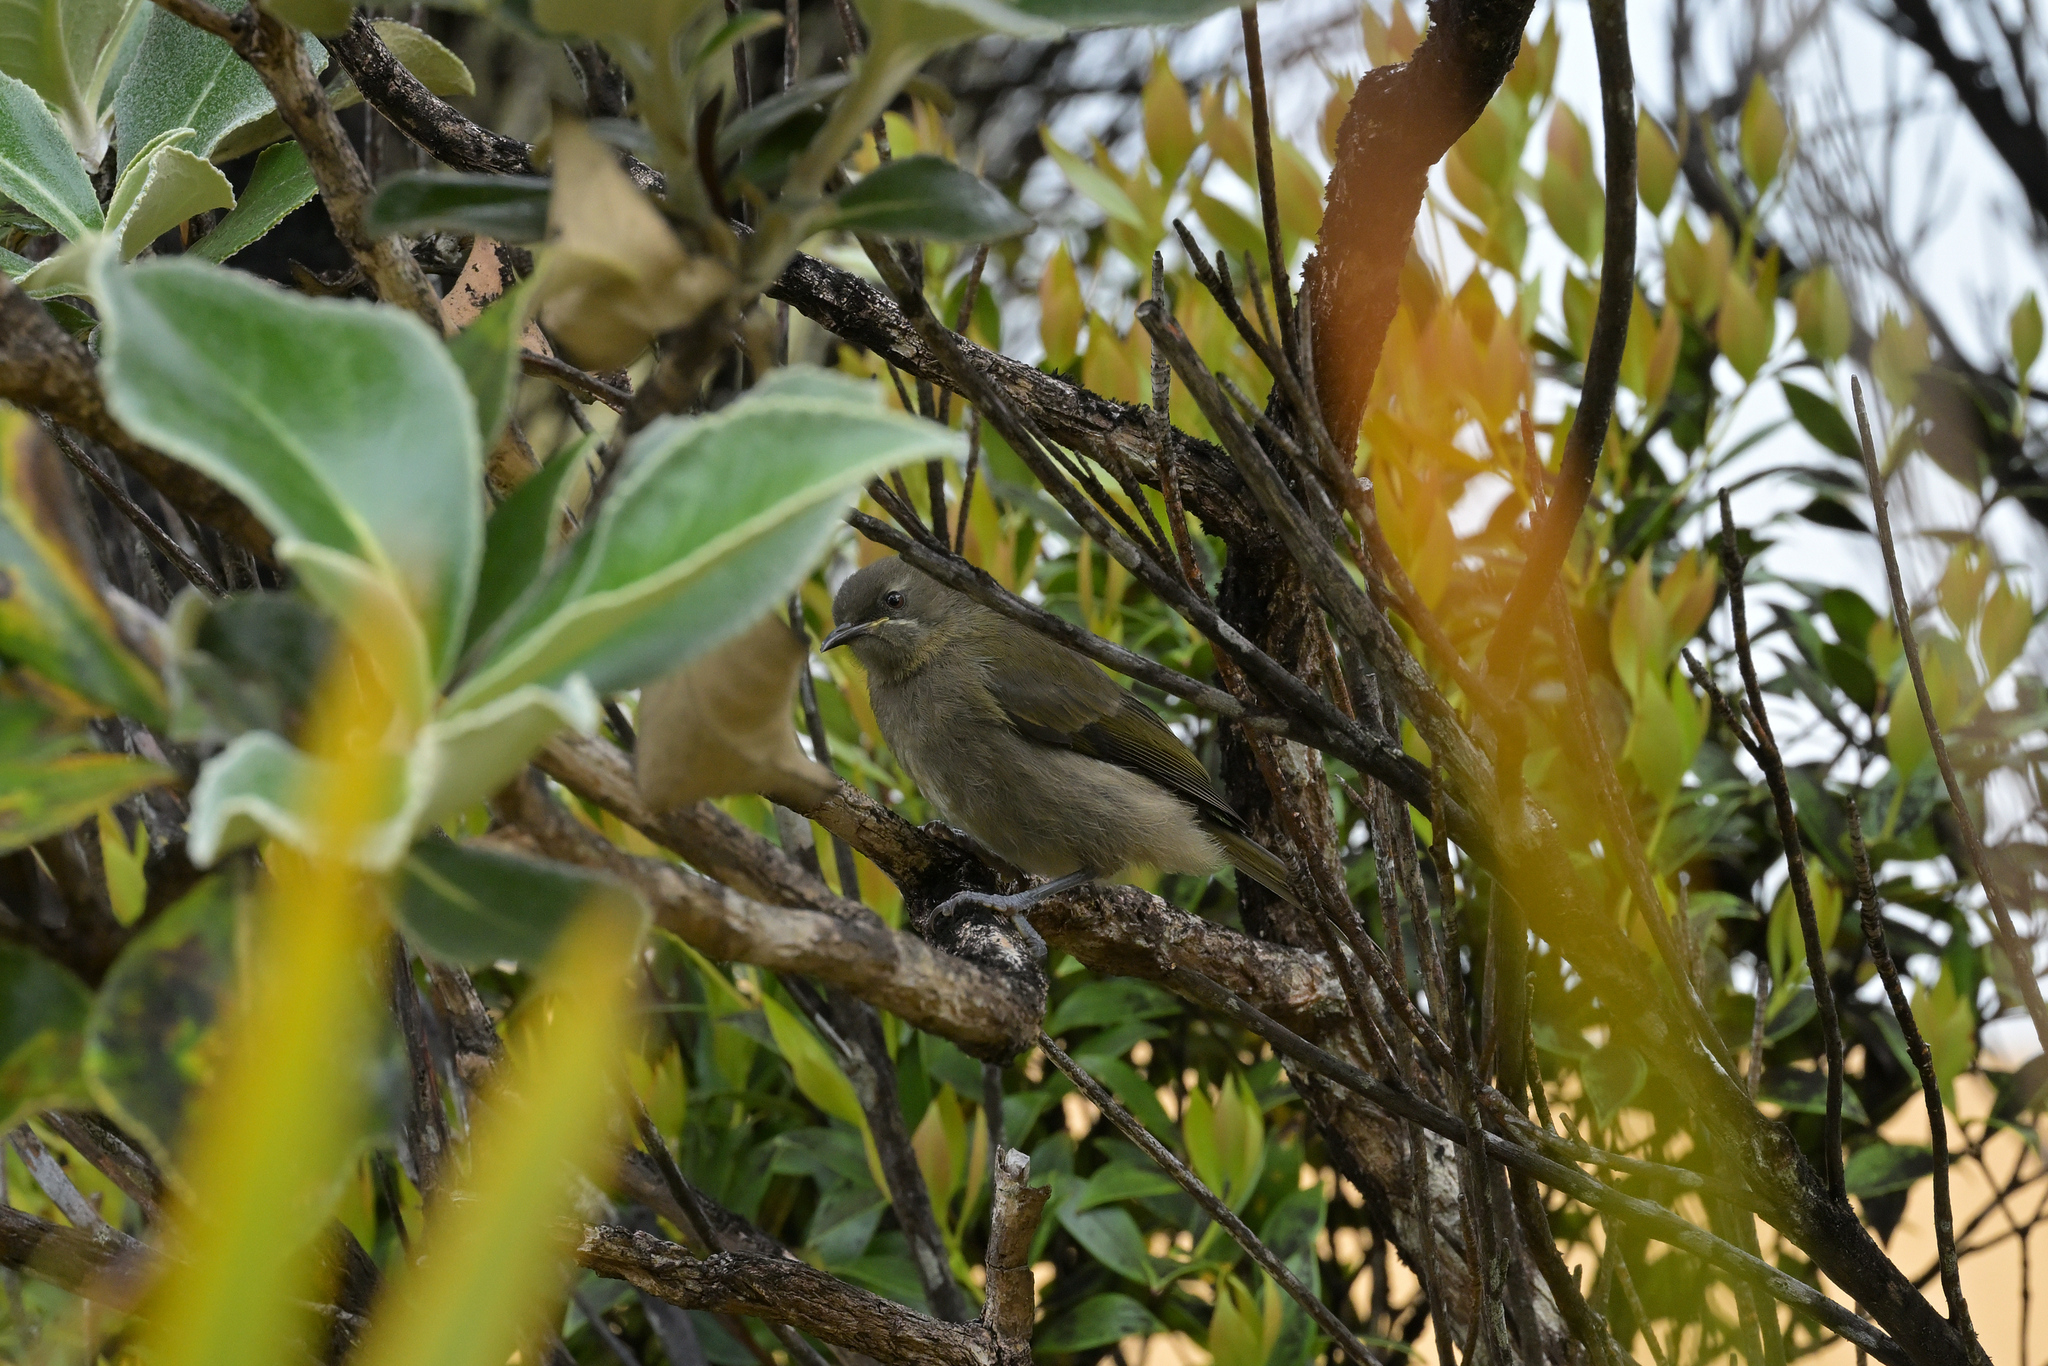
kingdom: Animalia
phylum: Chordata
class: Aves
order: Passeriformes
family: Meliphagidae
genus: Anthornis
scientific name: Anthornis melanura
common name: New zealand bellbird
